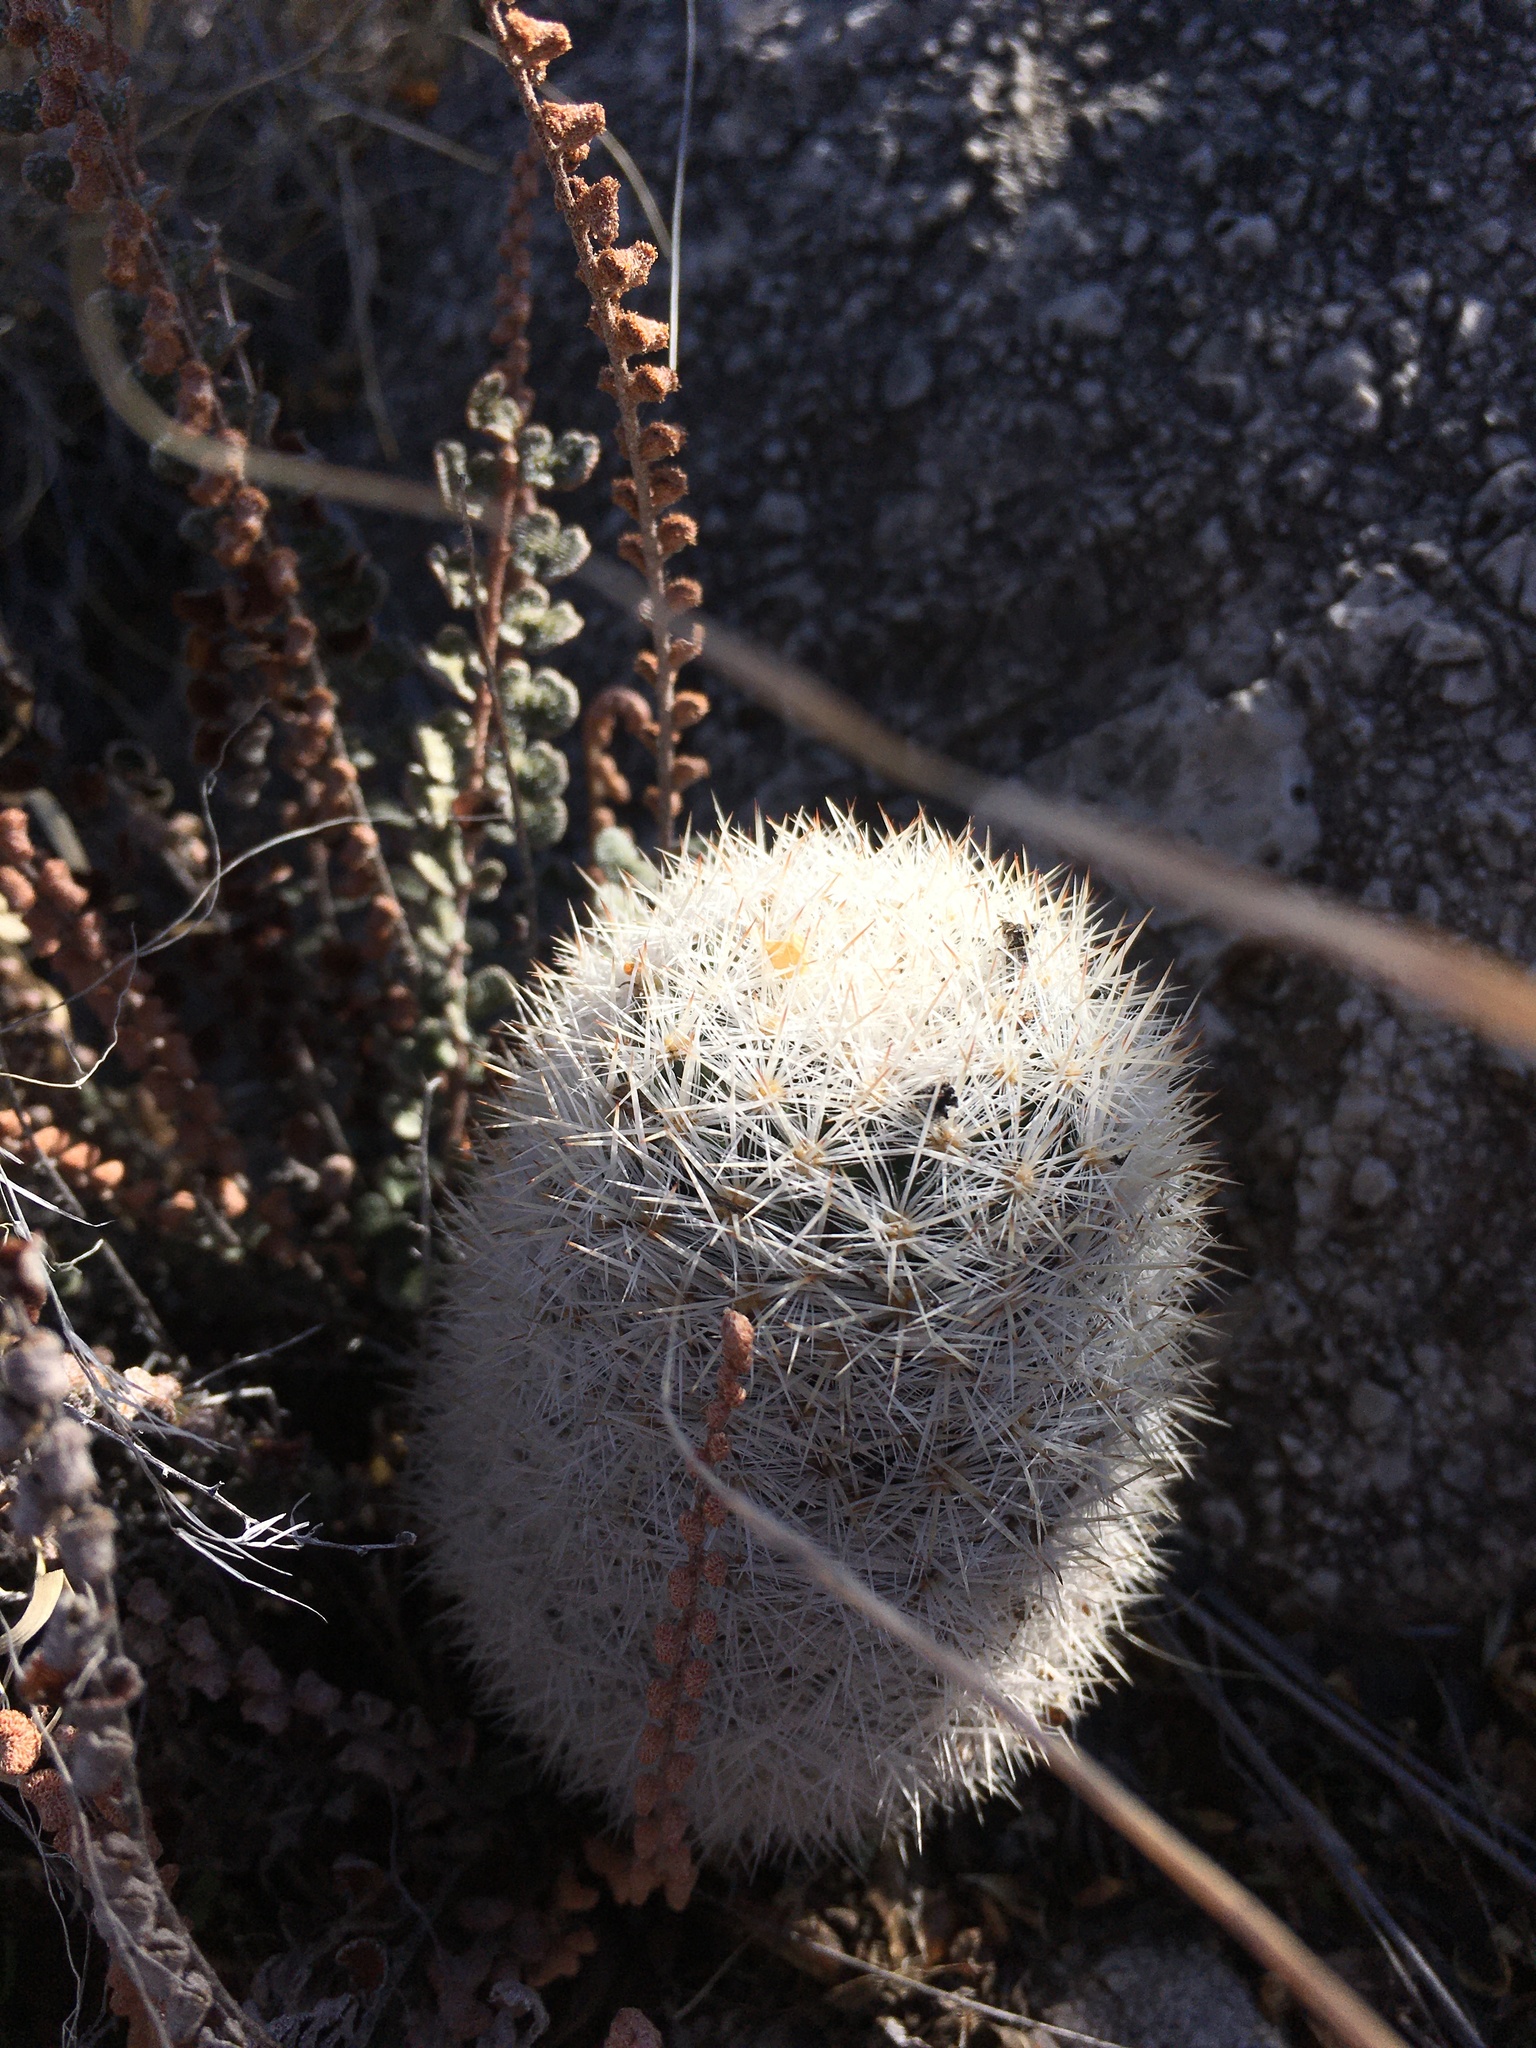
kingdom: Plantae
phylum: Tracheophyta
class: Magnoliopsida
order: Caryophyllales
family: Cactaceae
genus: Pelecyphora
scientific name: Pelecyphora sneedii
